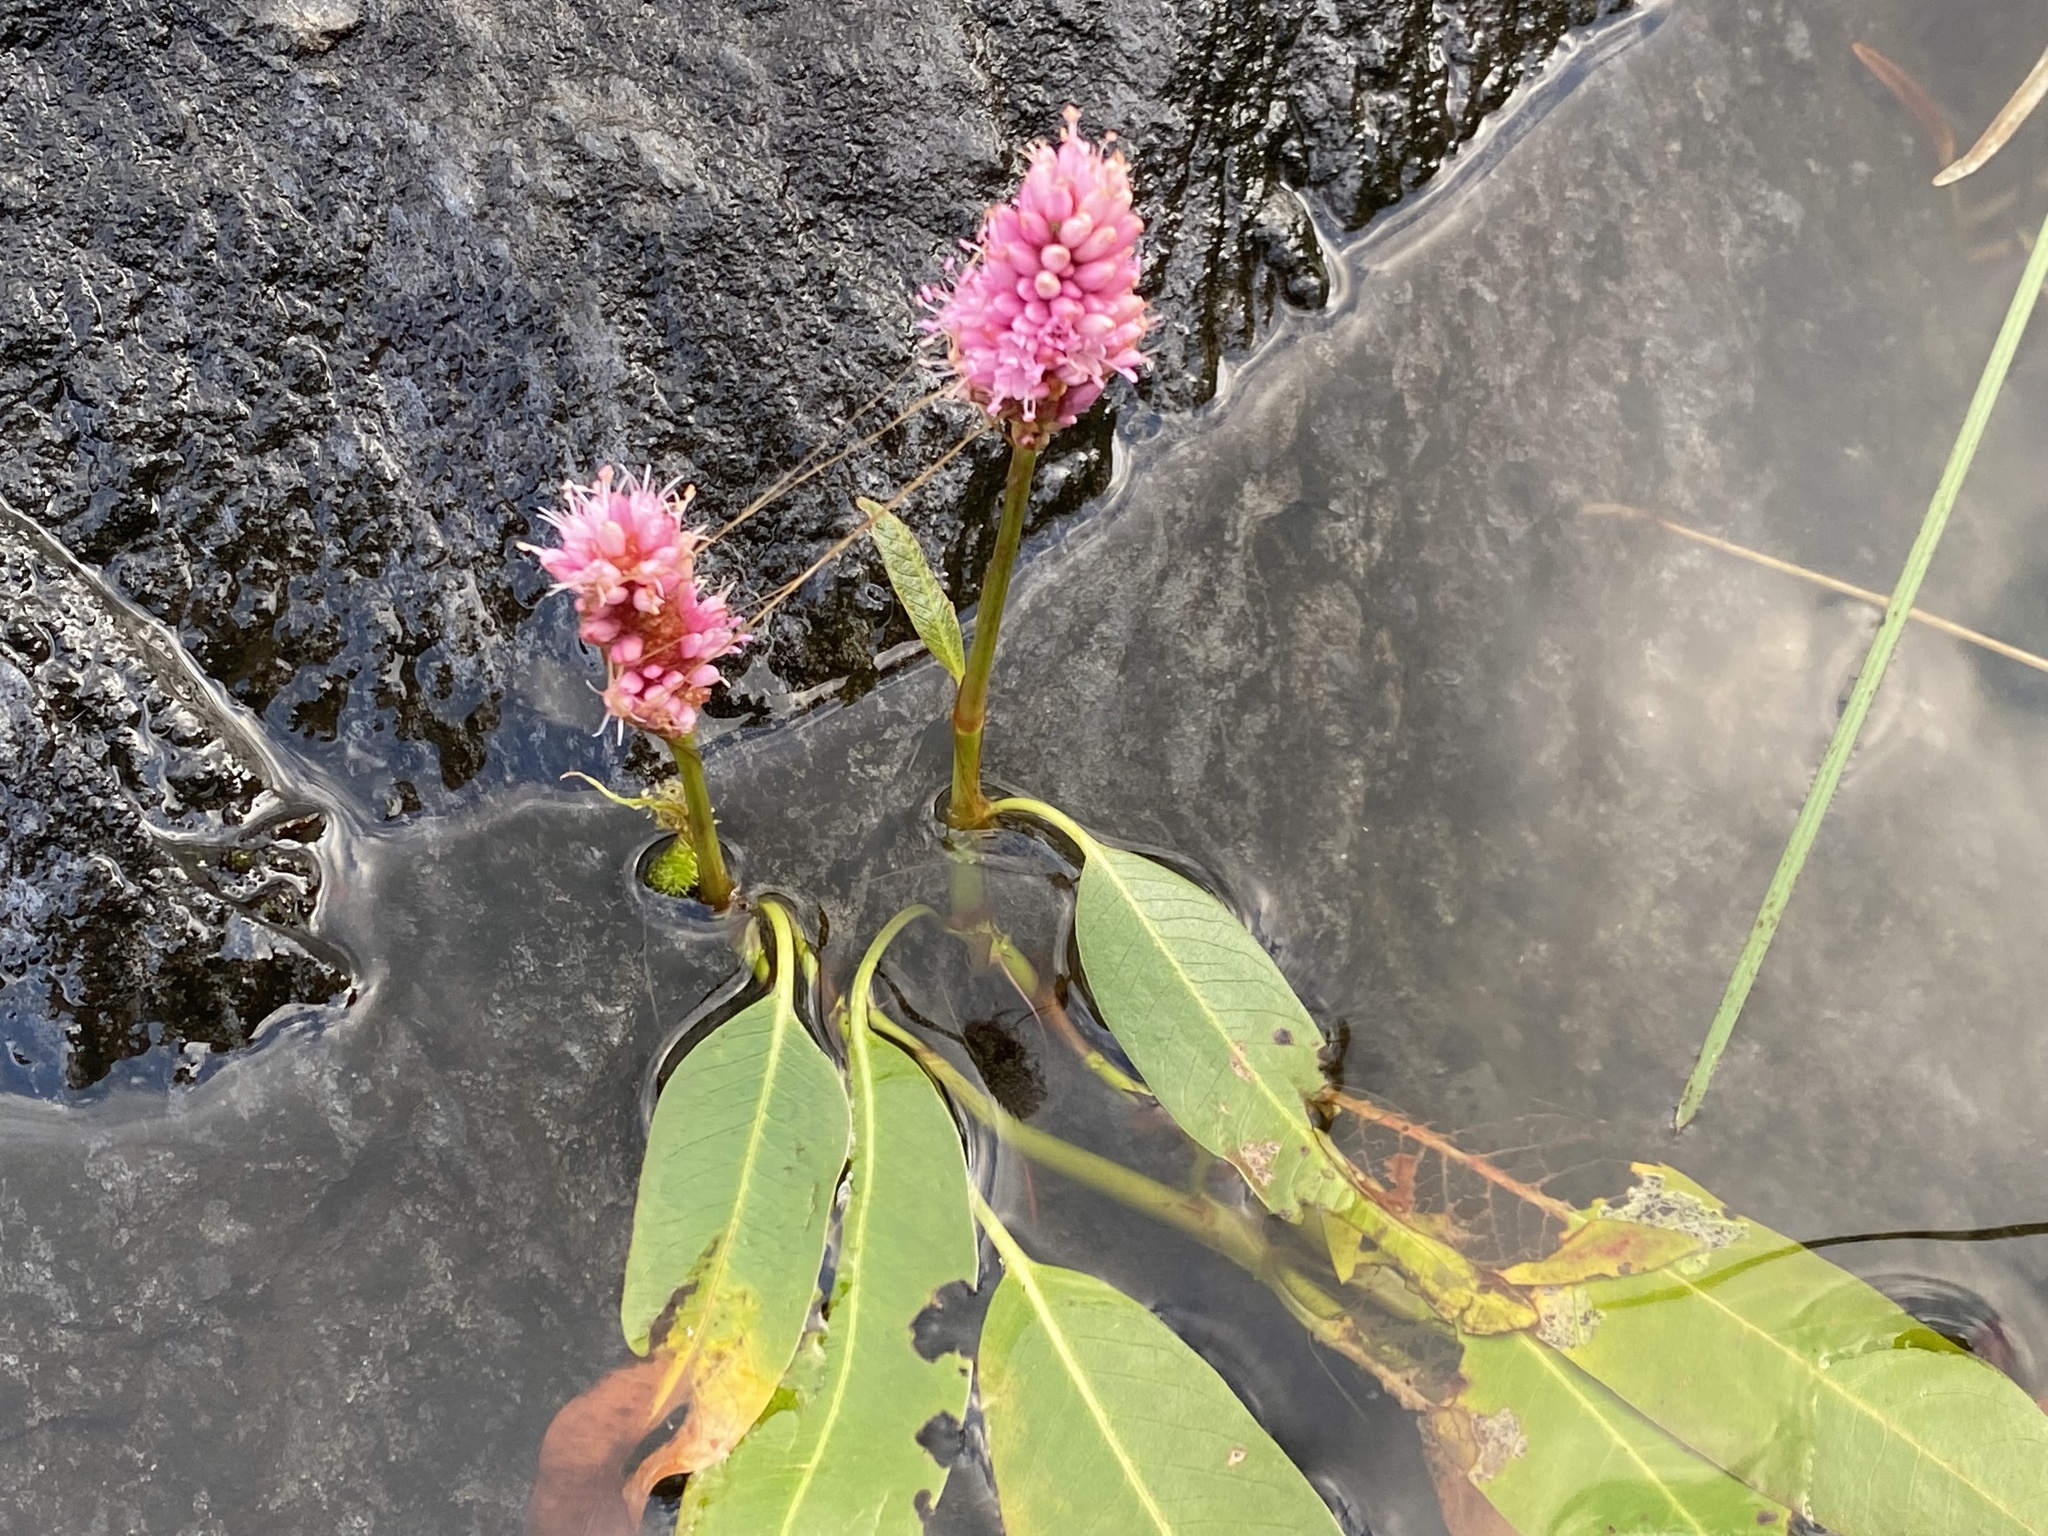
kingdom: Plantae
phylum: Tracheophyta
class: Magnoliopsida
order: Caryophyllales
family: Polygonaceae
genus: Persicaria
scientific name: Persicaria amphibia
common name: Amphibious bistort
